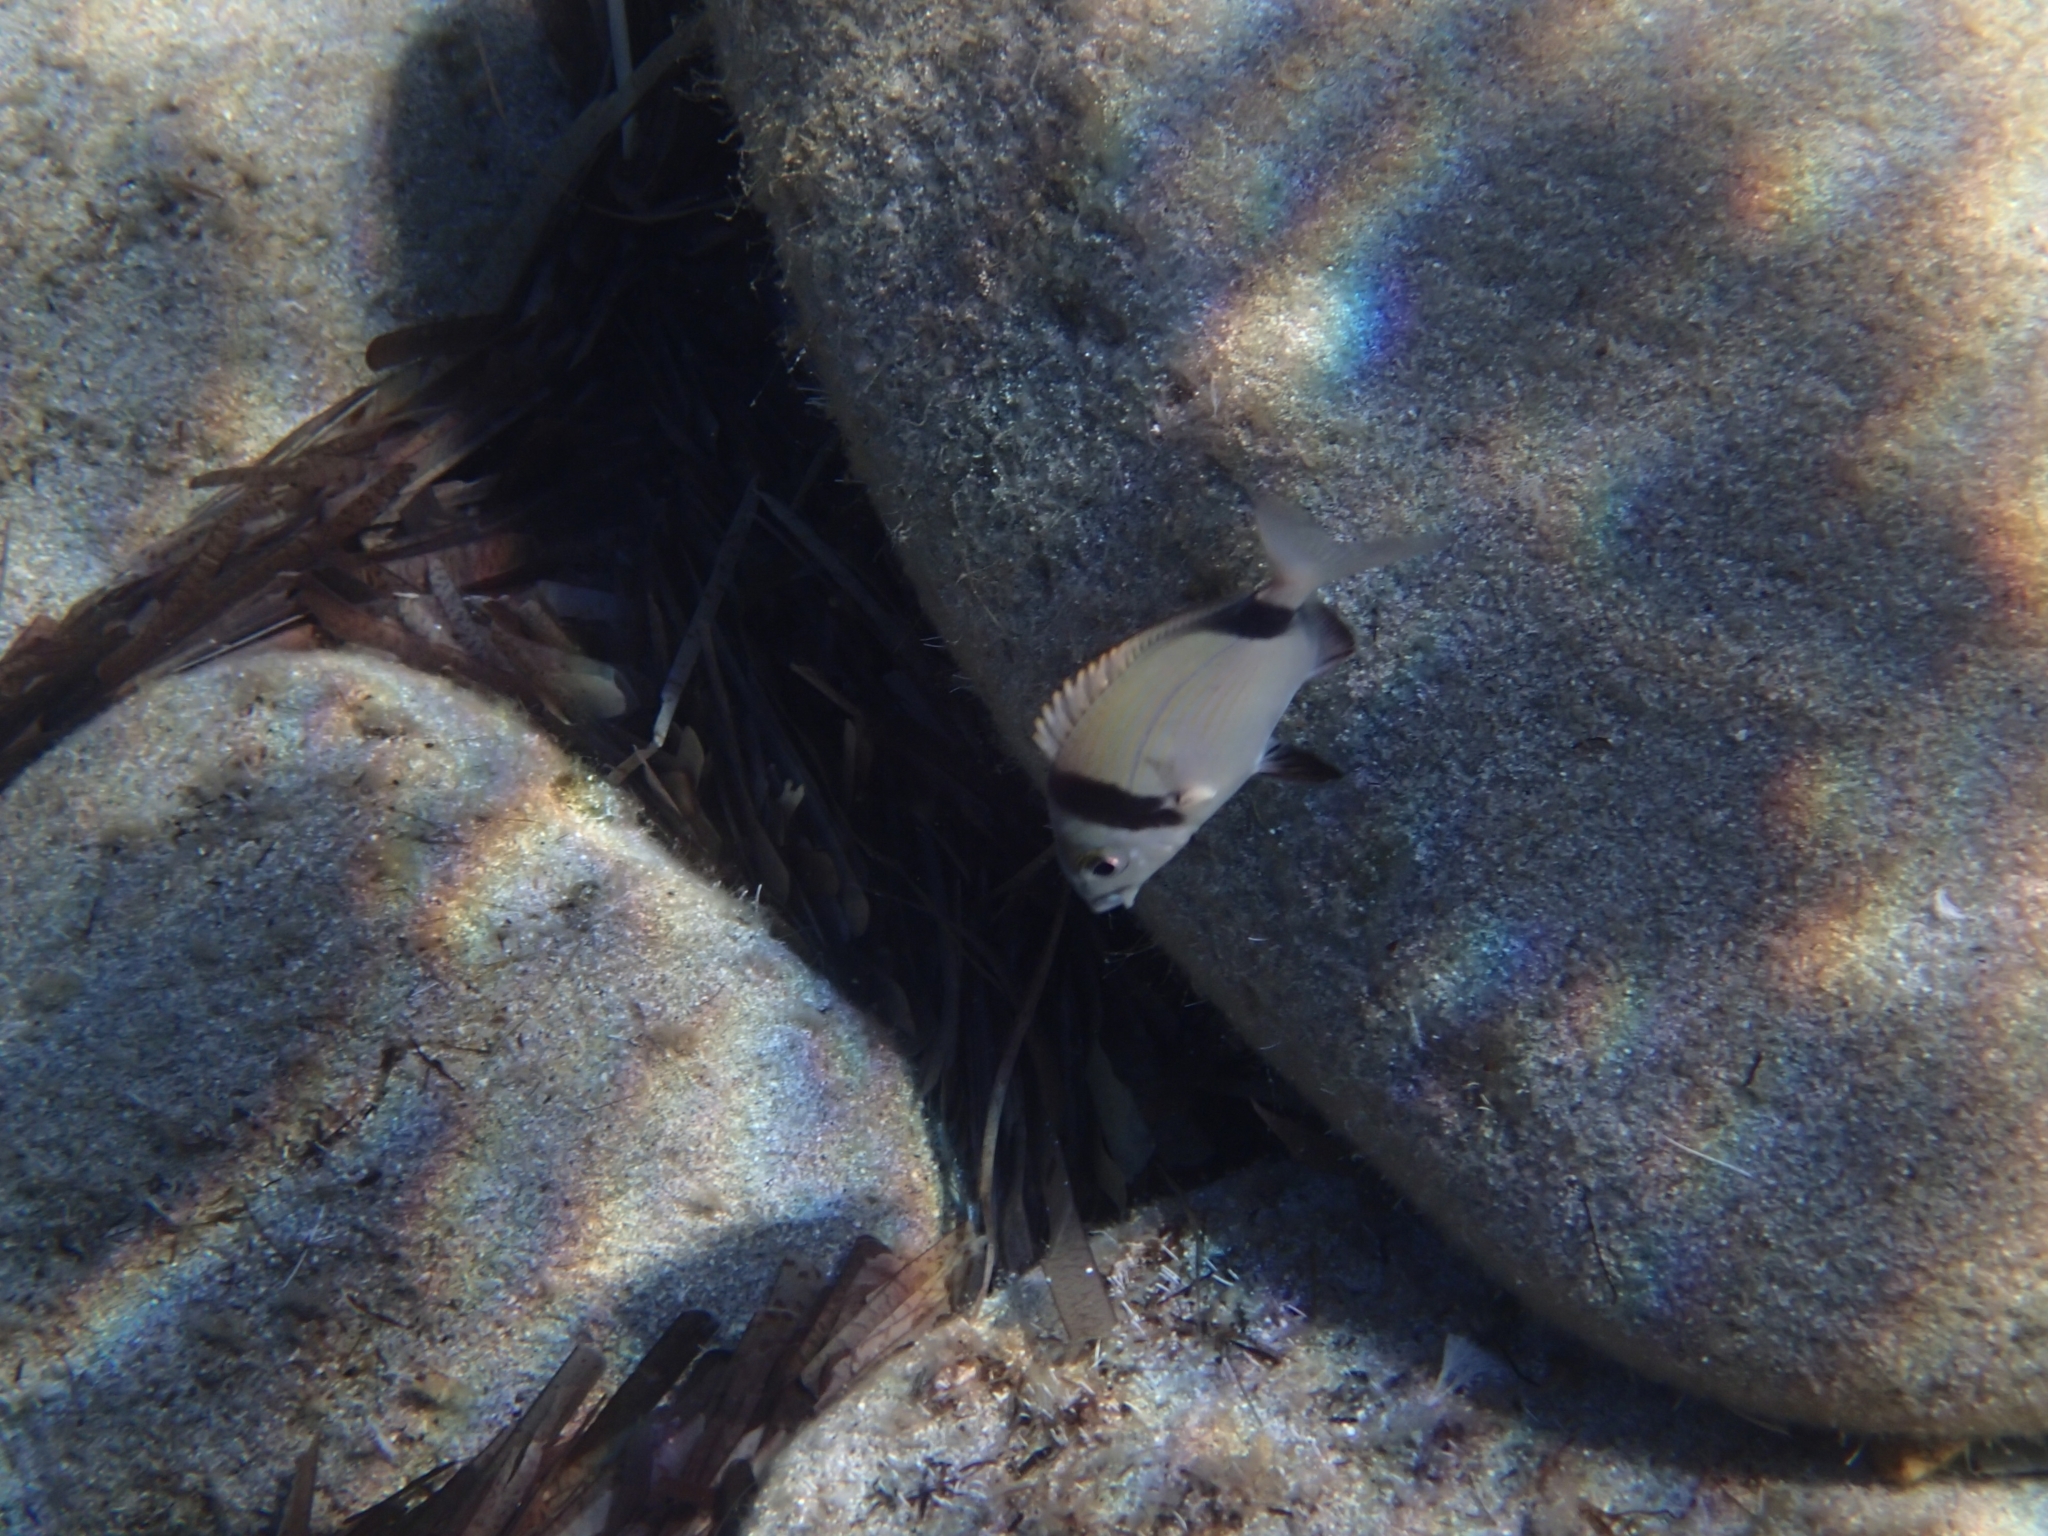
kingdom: Animalia
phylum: Chordata
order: Perciformes
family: Sparidae
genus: Diplodus
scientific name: Diplodus vulgaris
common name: Common two-banded seabream
